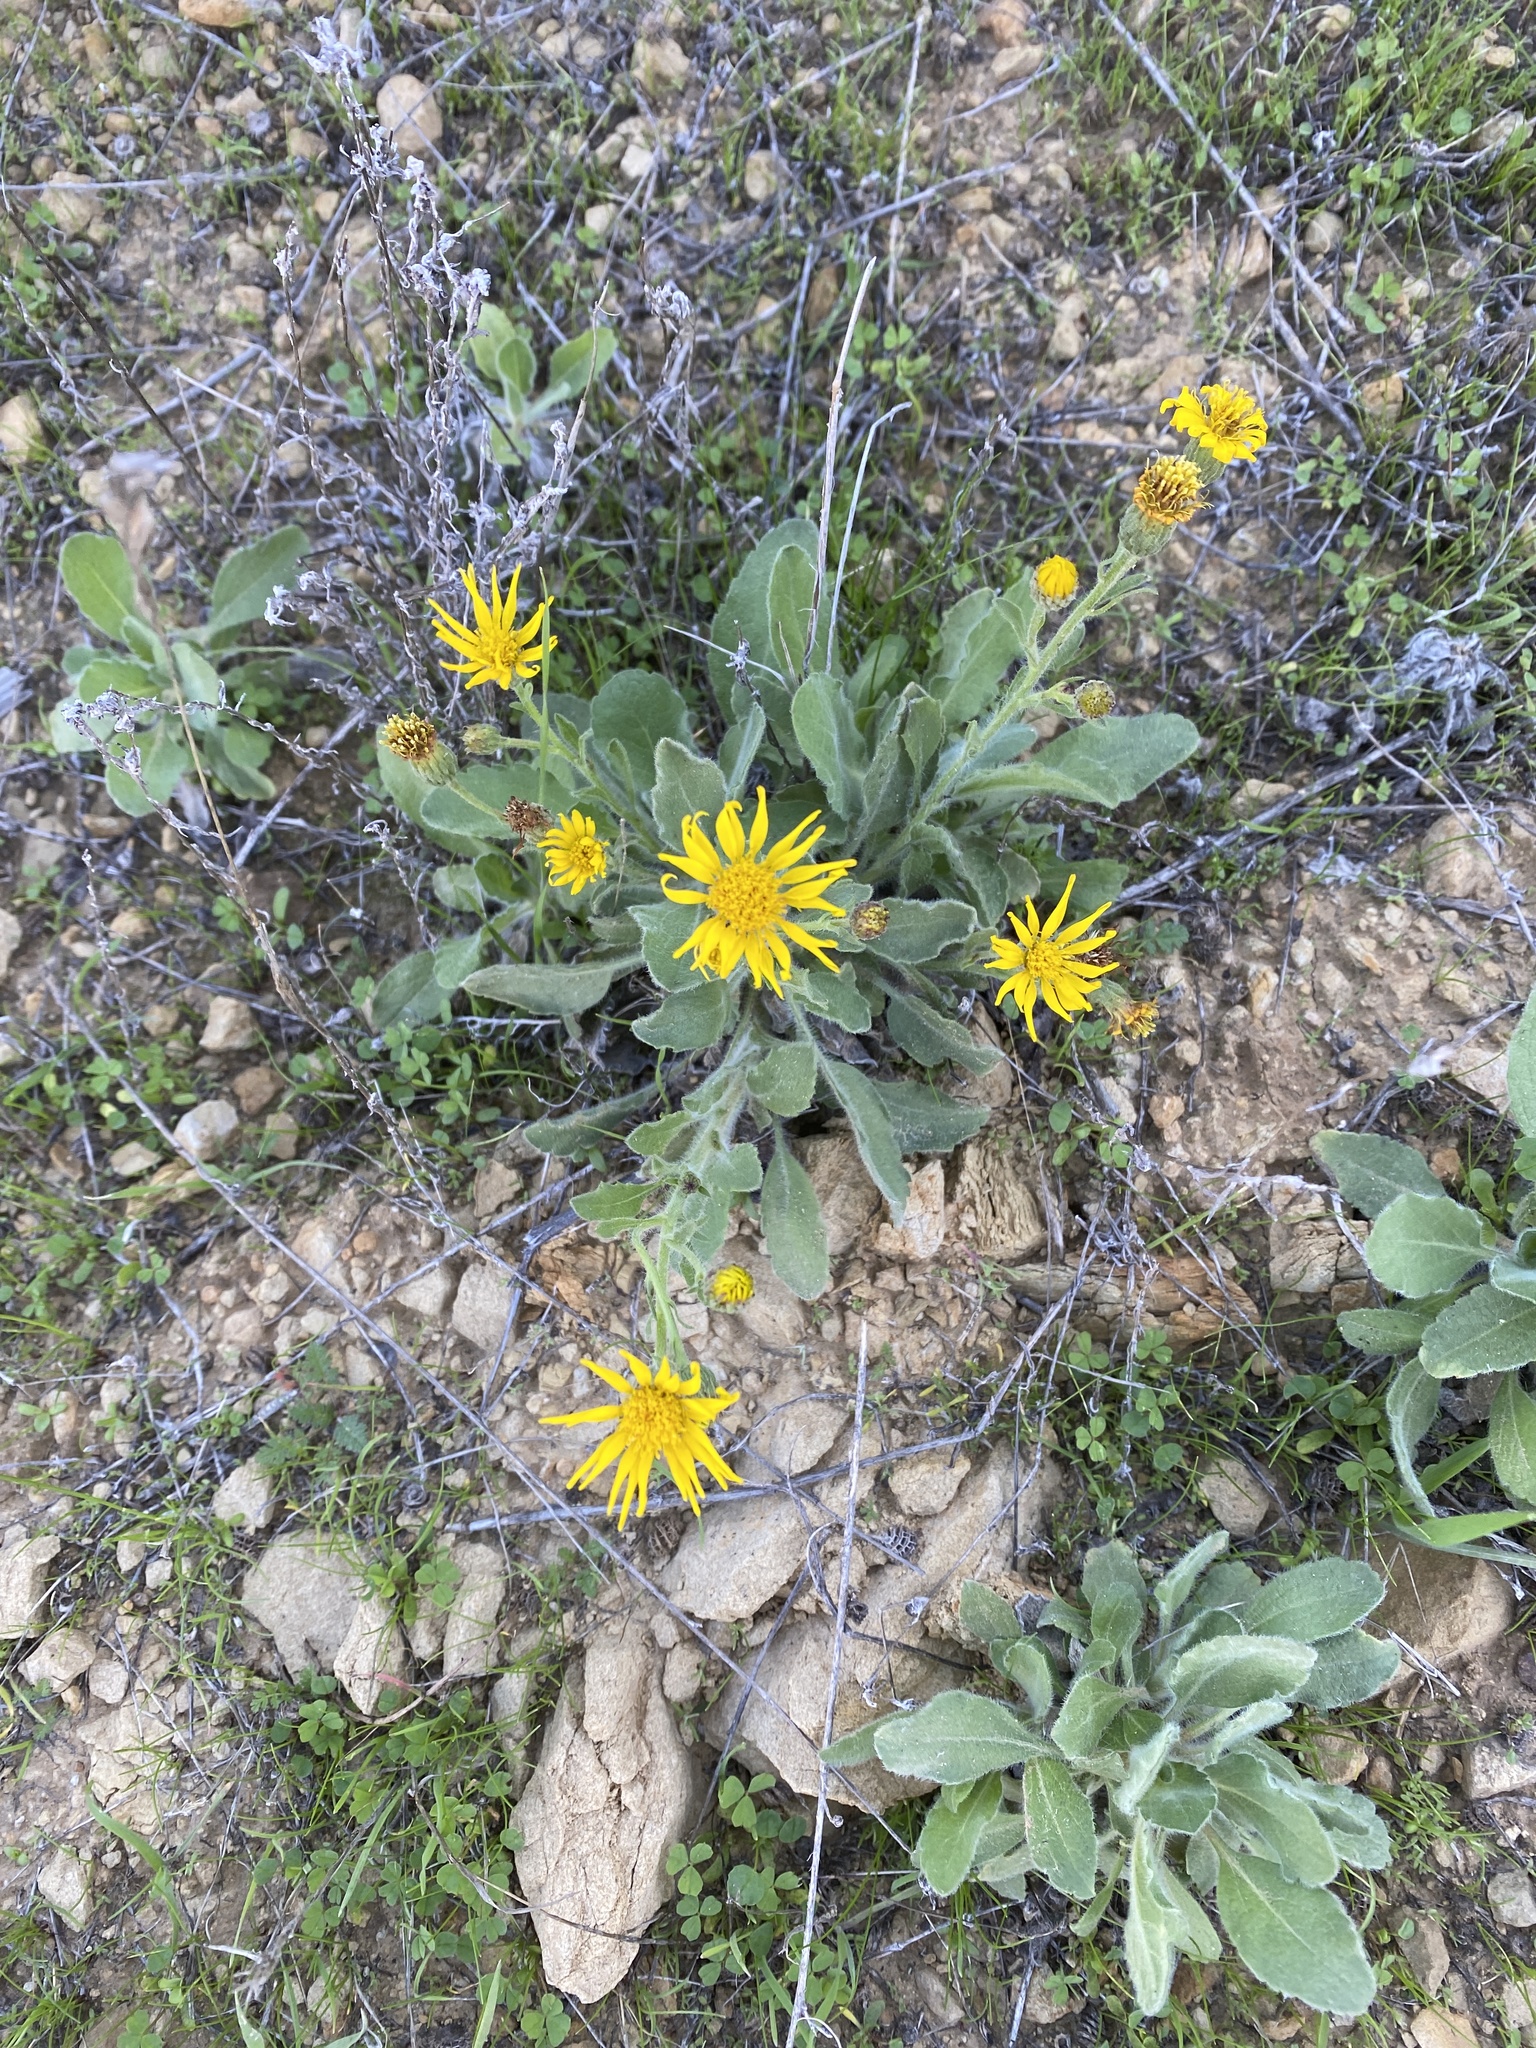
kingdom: Plantae
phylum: Tracheophyta
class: Magnoliopsida
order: Asterales
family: Asteraceae
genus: Heterotheca
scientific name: Heterotheca grandiflora
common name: Telegraphweed
